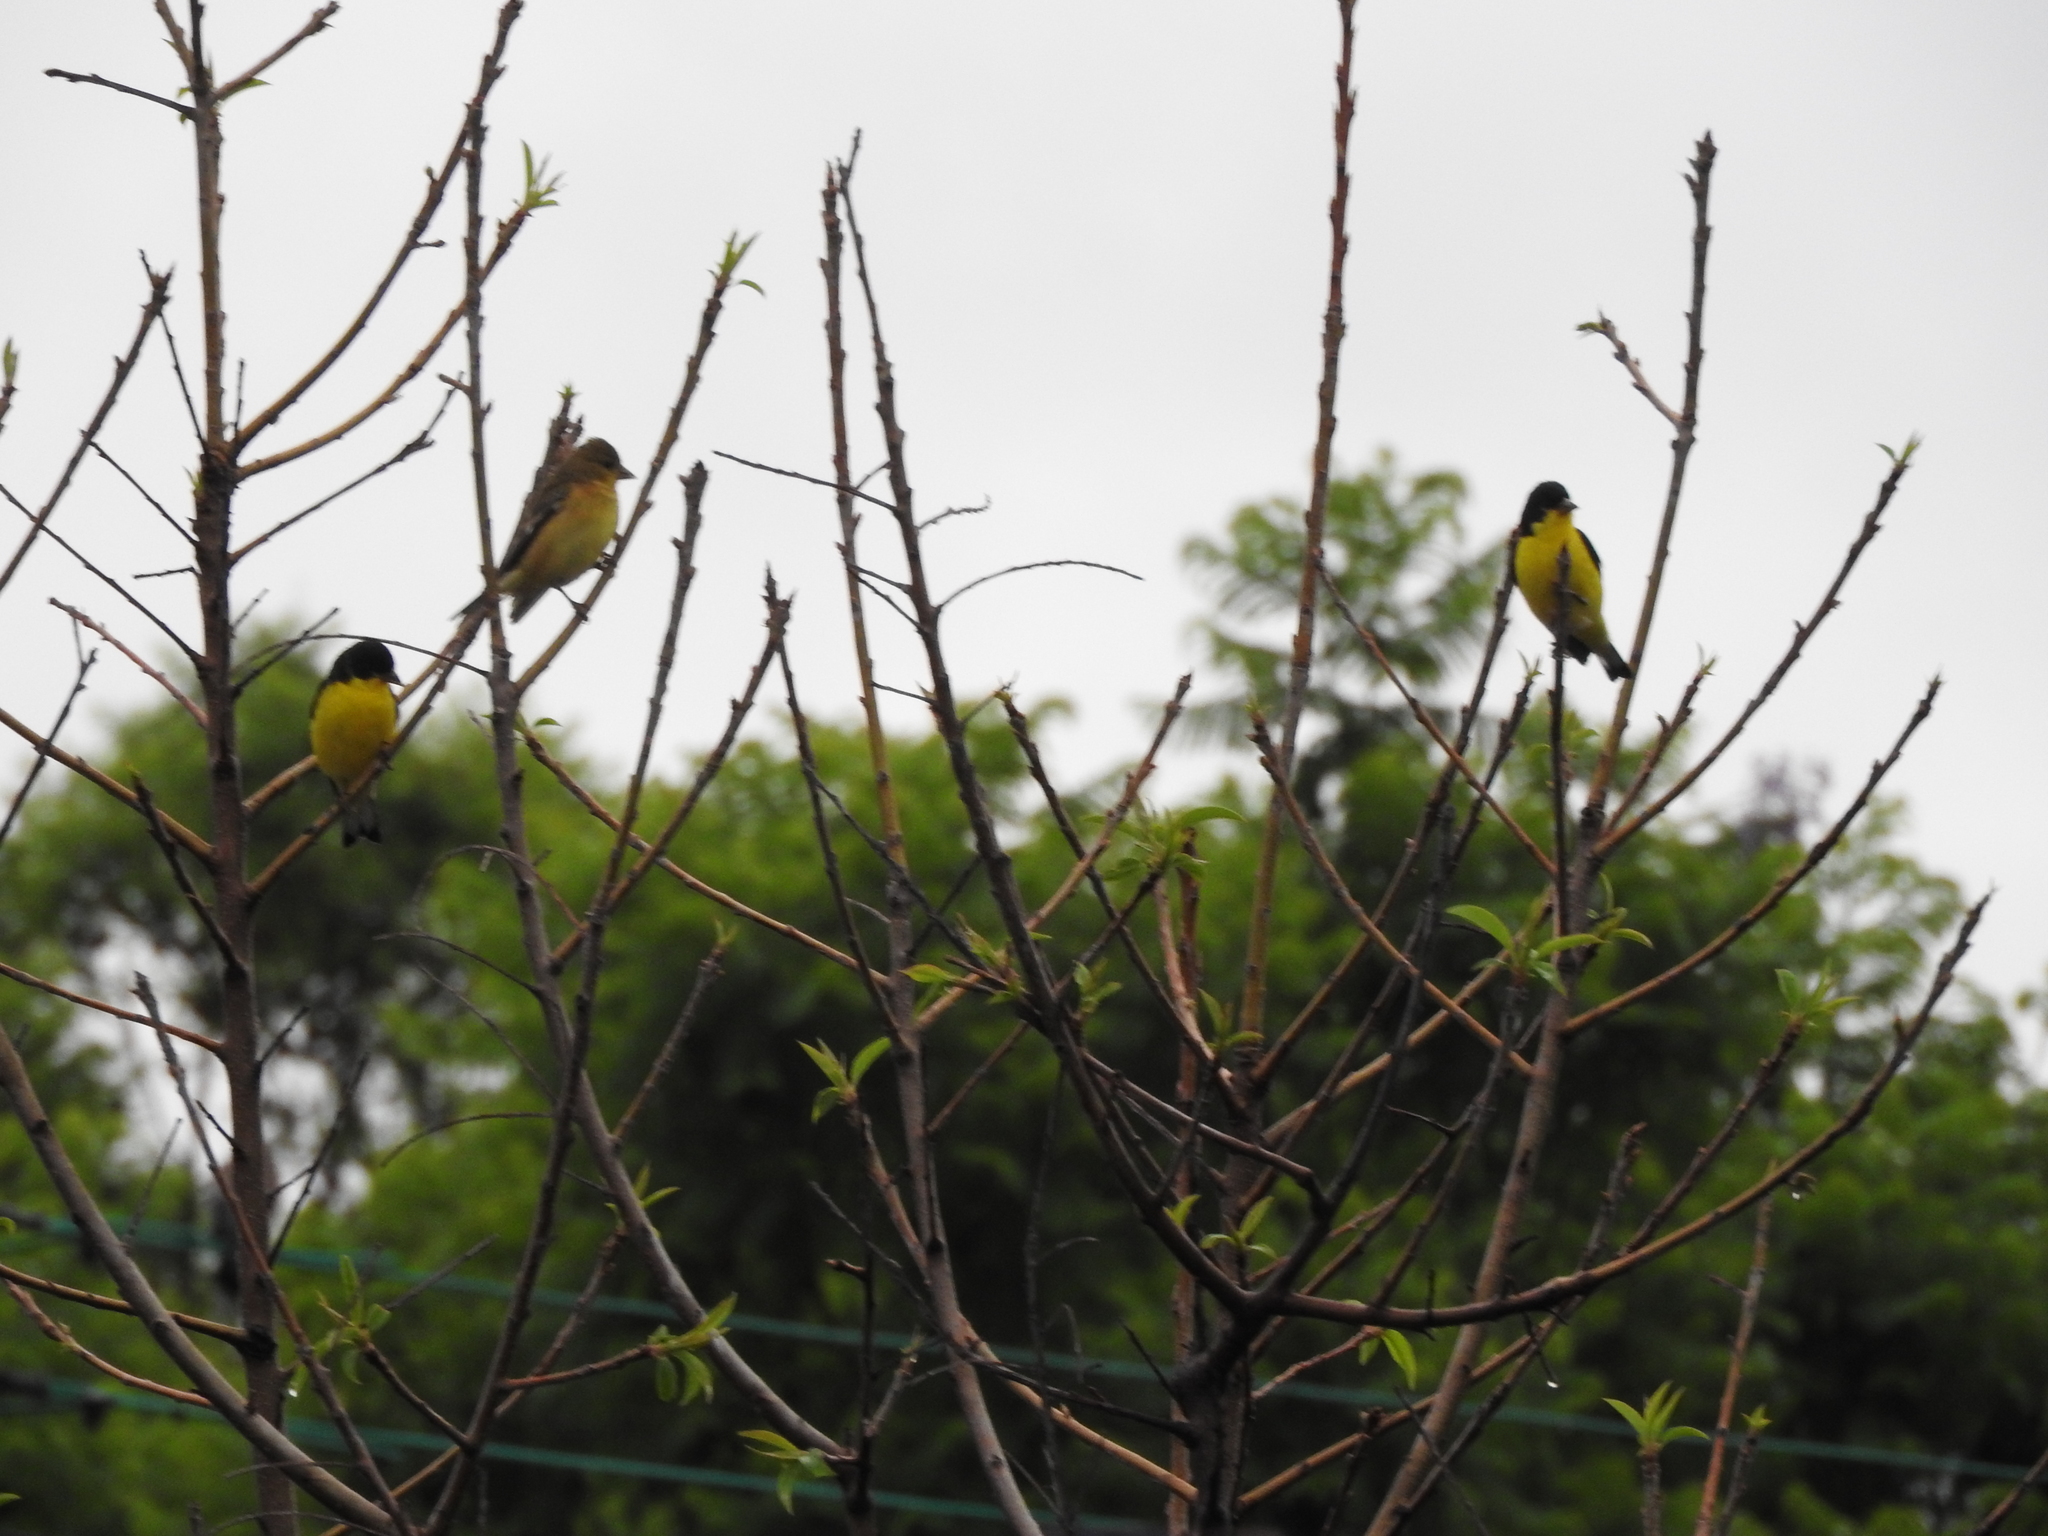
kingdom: Animalia
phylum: Chordata
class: Aves
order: Passeriformes
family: Fringillidae
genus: Spinus
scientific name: Spinus psaltria
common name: Lesser goldfinch
